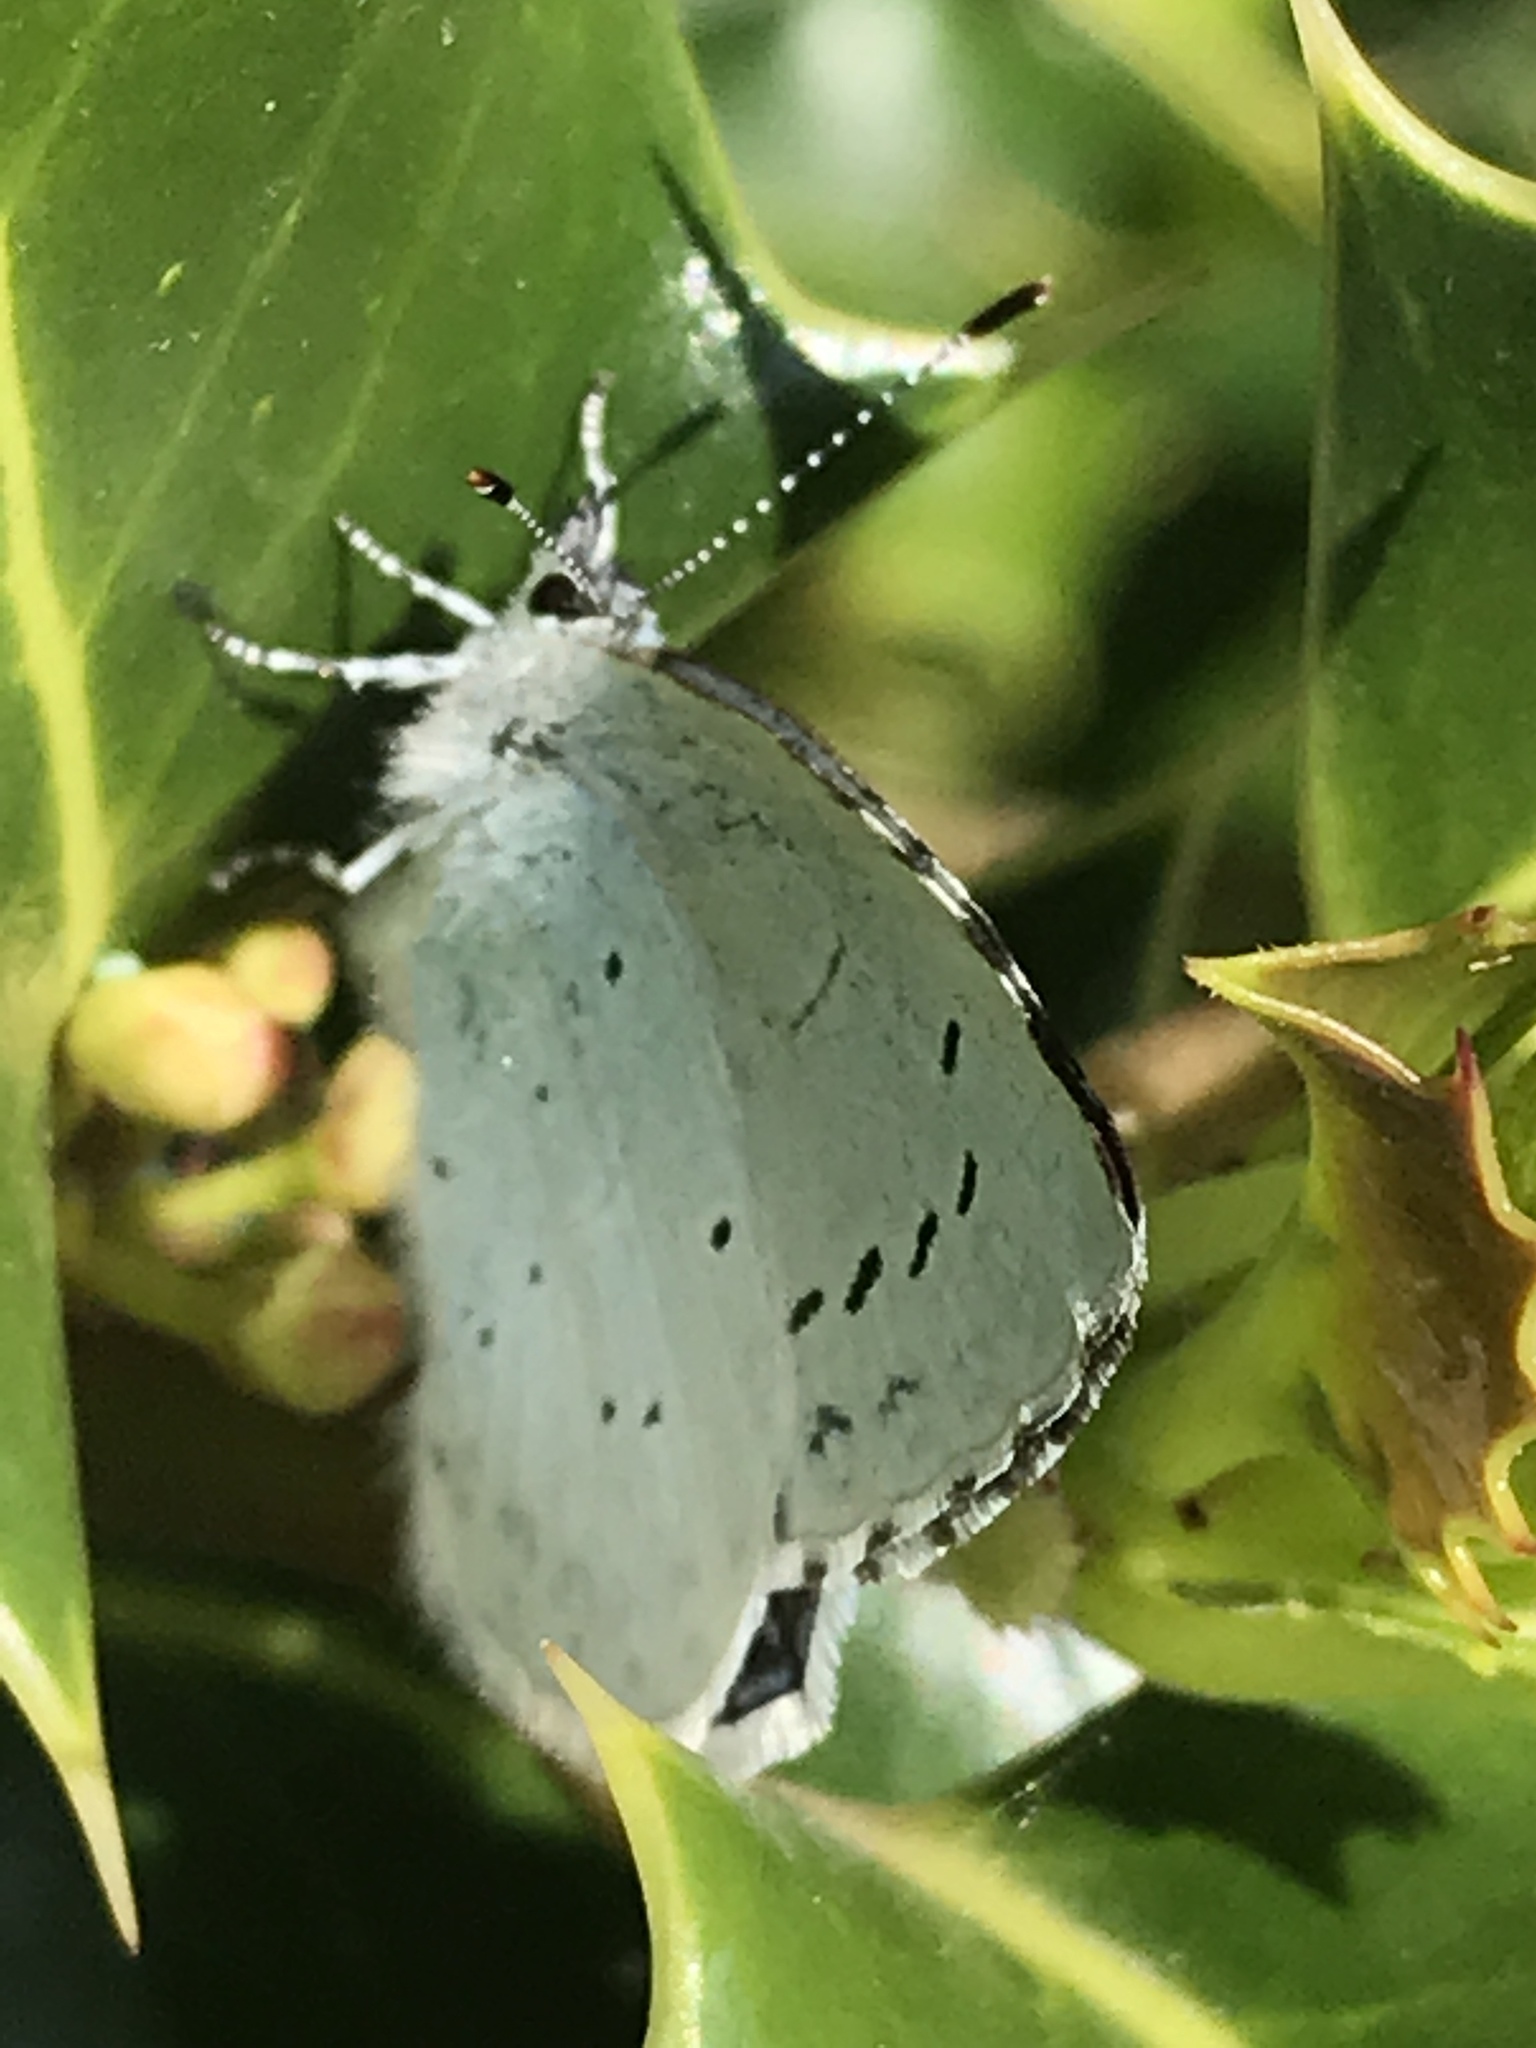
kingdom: Animalia
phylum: Arthropoda
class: Insecta
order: Lepidoptera
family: Lycaenidae
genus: Celastrina
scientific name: Celastrina argiolus
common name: Holly blue
